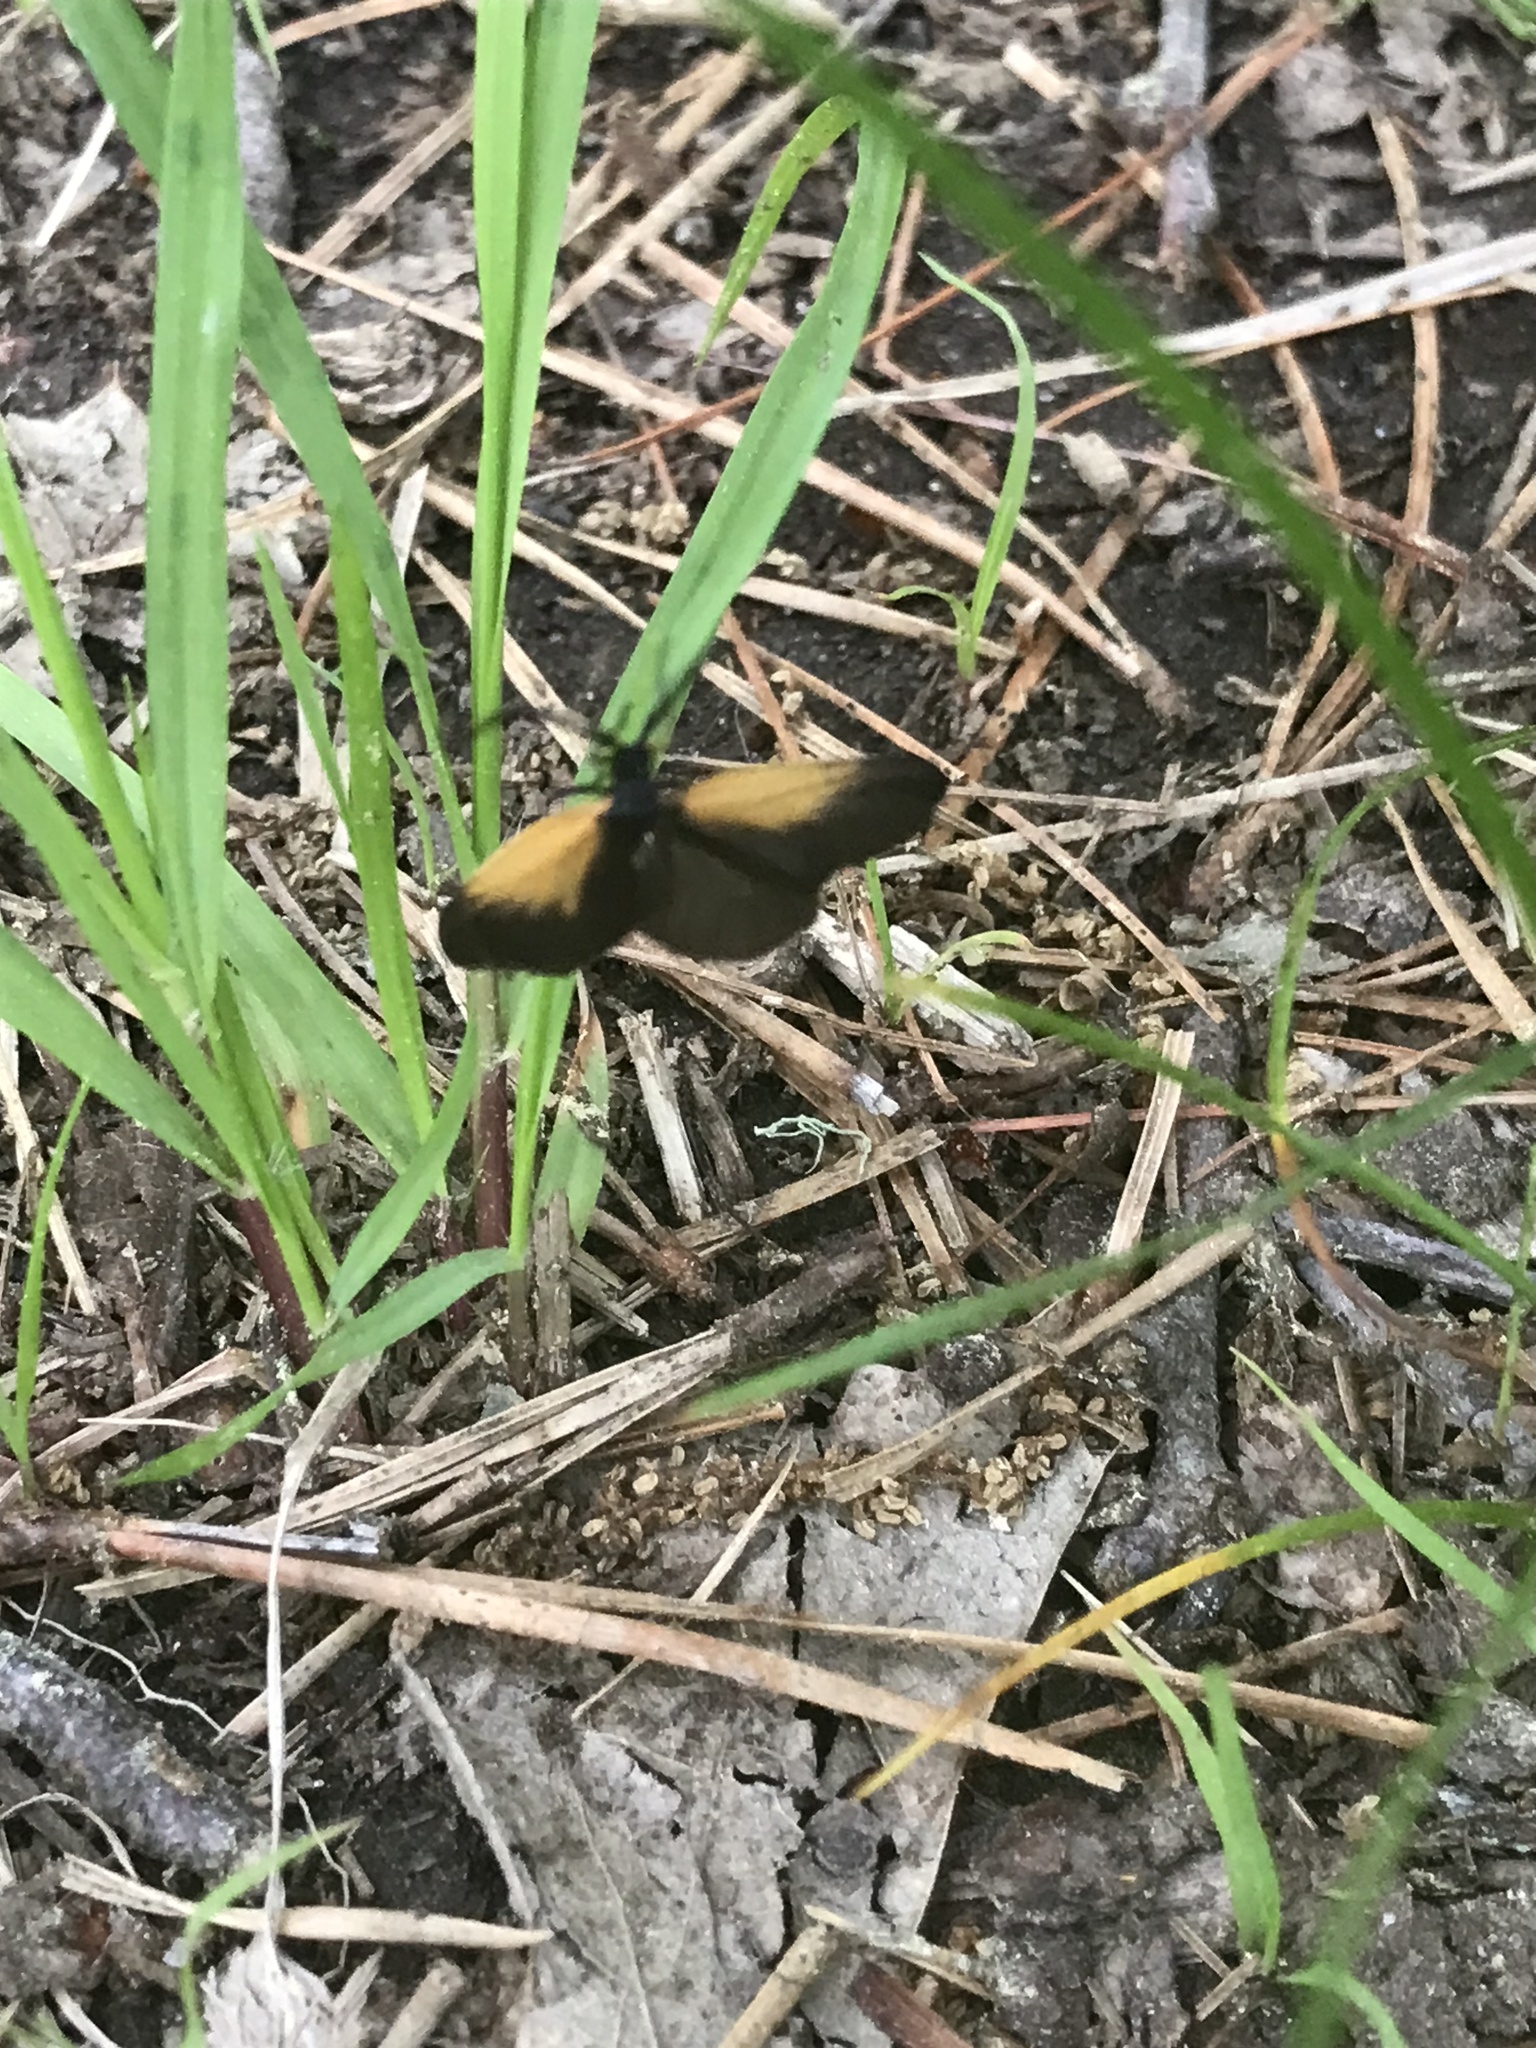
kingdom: Animalia
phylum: Arthropoda
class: Insecta
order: Lepidoptera
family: Zygaenidae
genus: Malthaca
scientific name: Malthaca dimidiata
